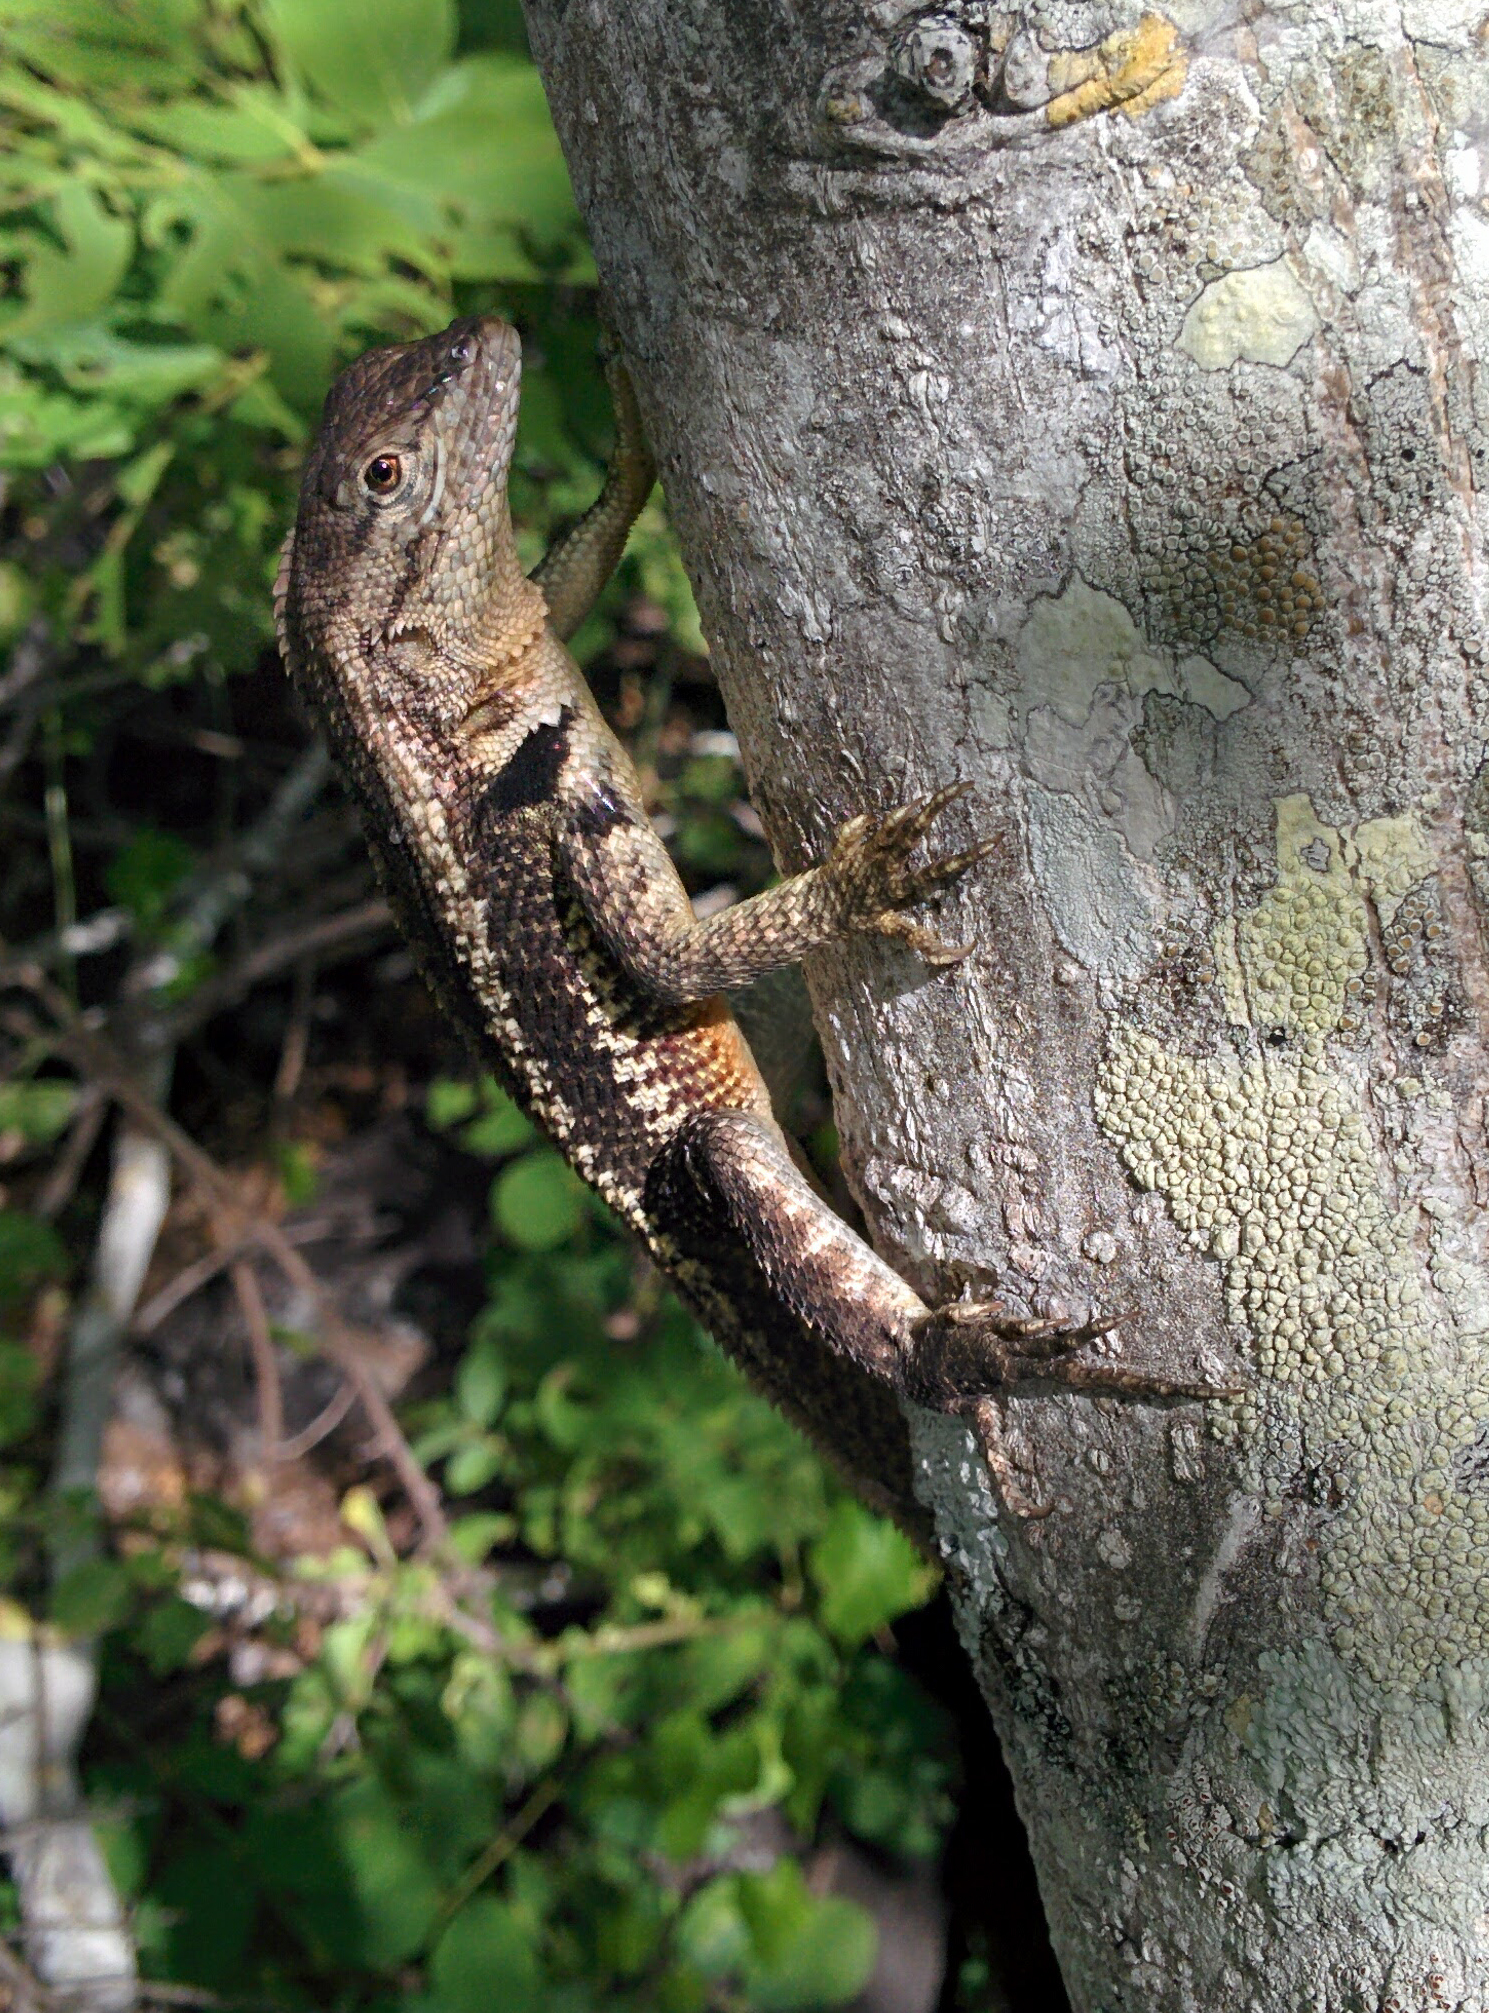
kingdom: Animalia
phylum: Chordata
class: Squamata
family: Tropiduridae
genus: Microlophus
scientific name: Microlophus bivittatus
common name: San cristobal lava lizard
